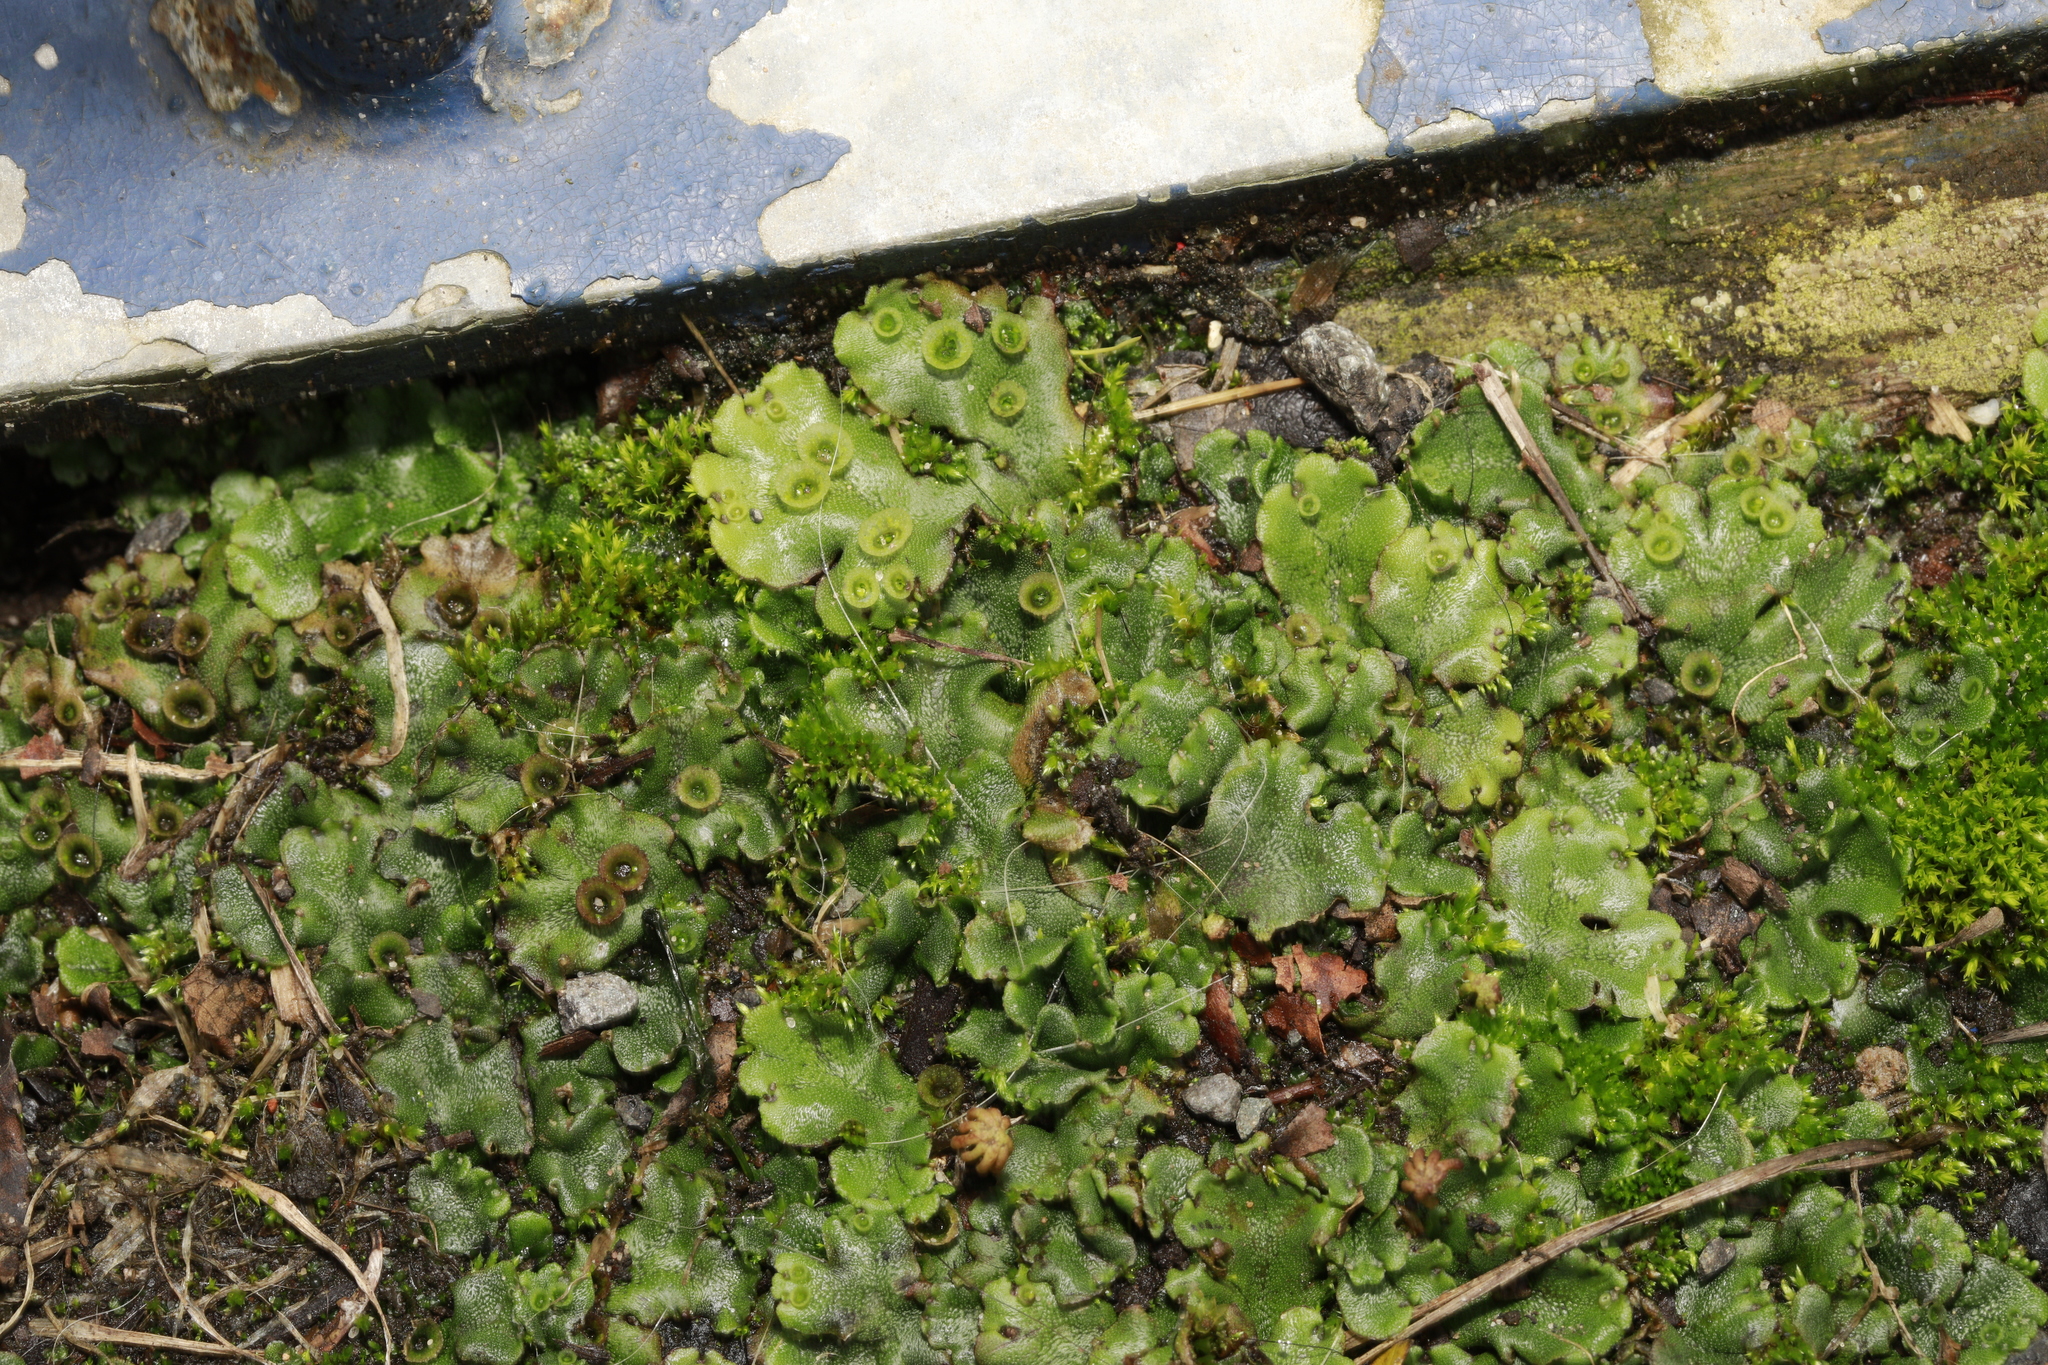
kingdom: Plantae
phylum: Marchantiophyta
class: Marchantiopsida
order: Marchantiales
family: Marchantiaceae
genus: Marchantia
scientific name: Marchantia polymorpha
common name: Common liverwort
